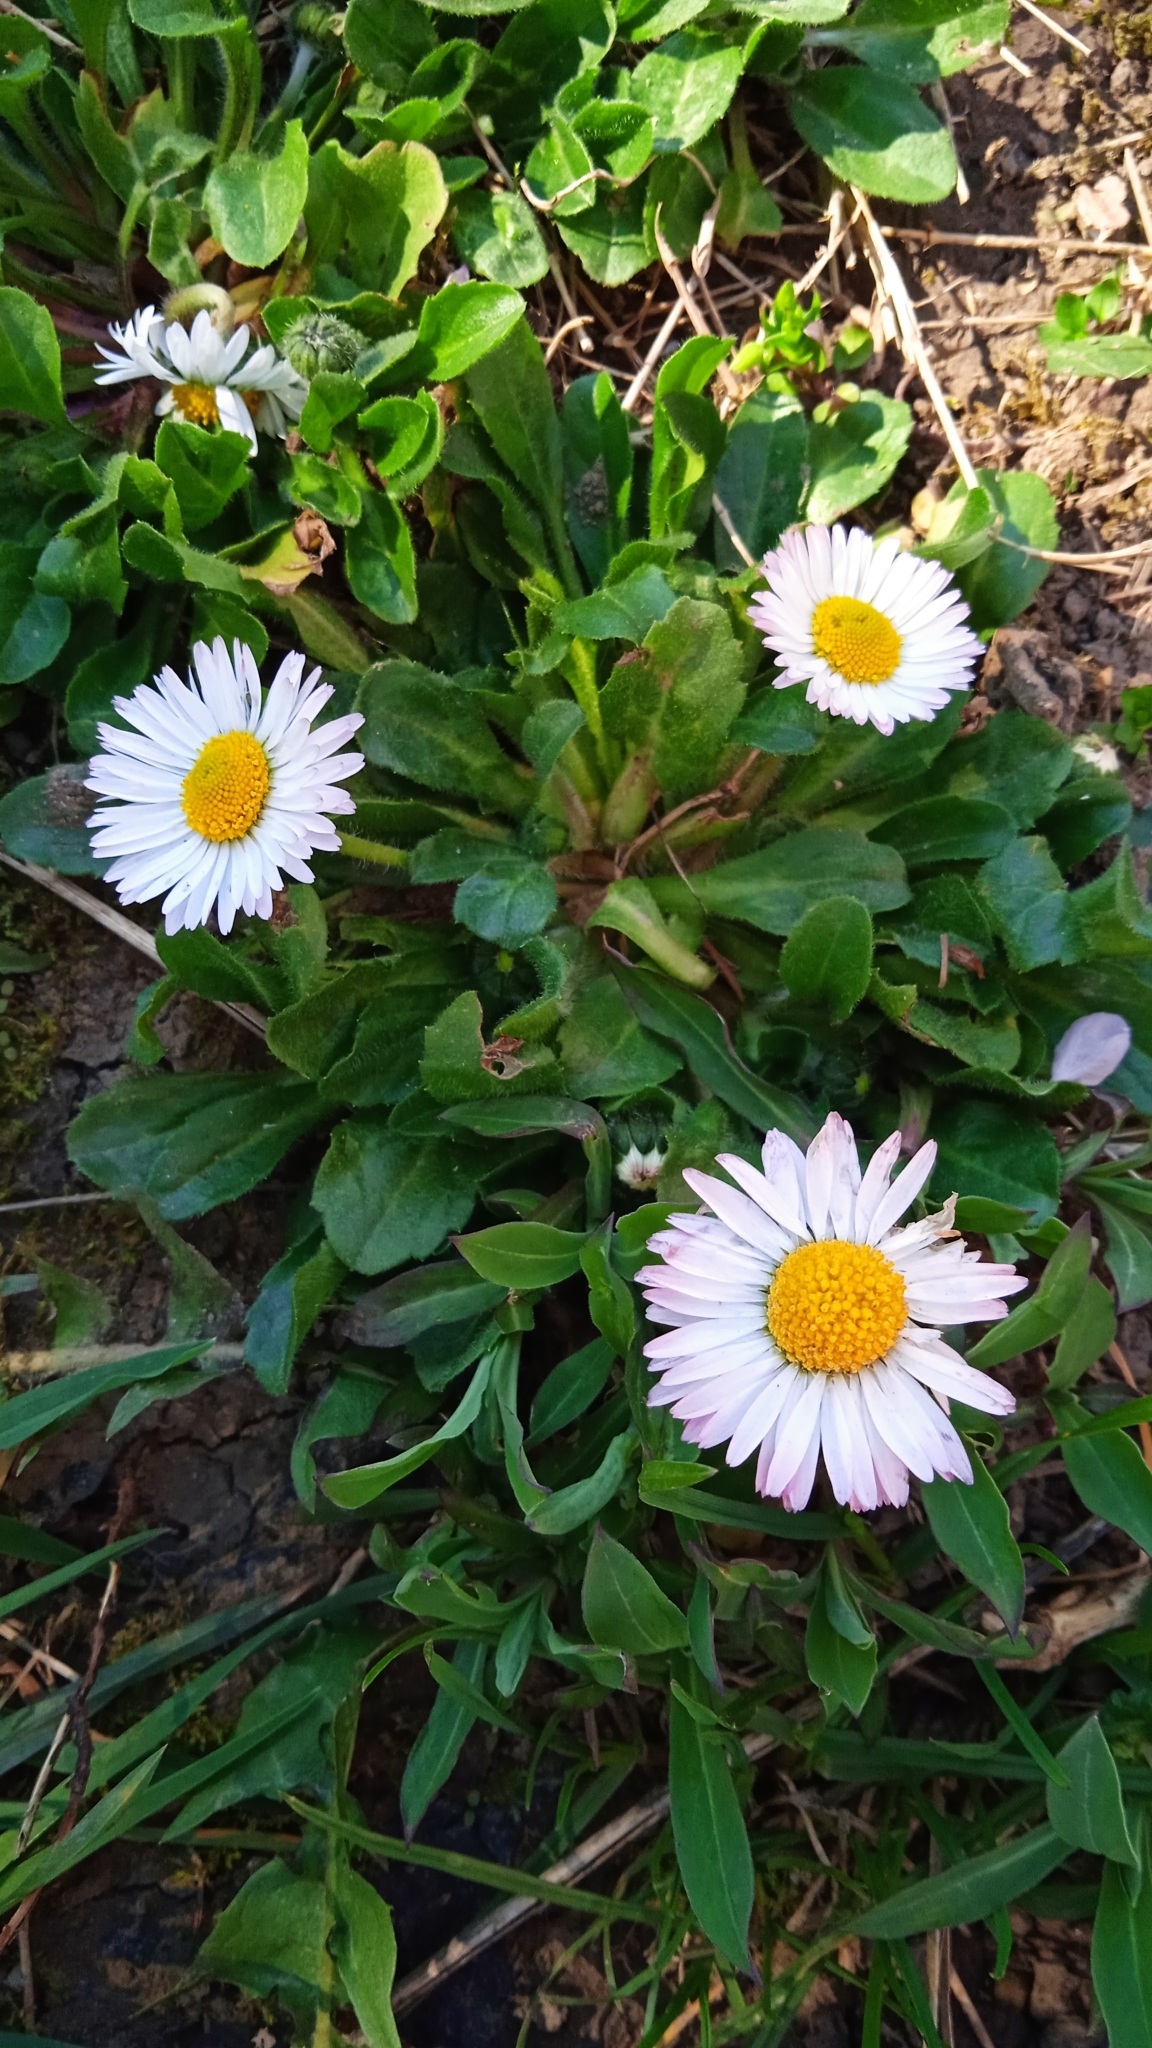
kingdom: Plantae
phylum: Tracheophyta
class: Magnoliopsida
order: Asterales
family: Asteraceae
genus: Bellis
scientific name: Bellis perennis
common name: Lawndaisy
